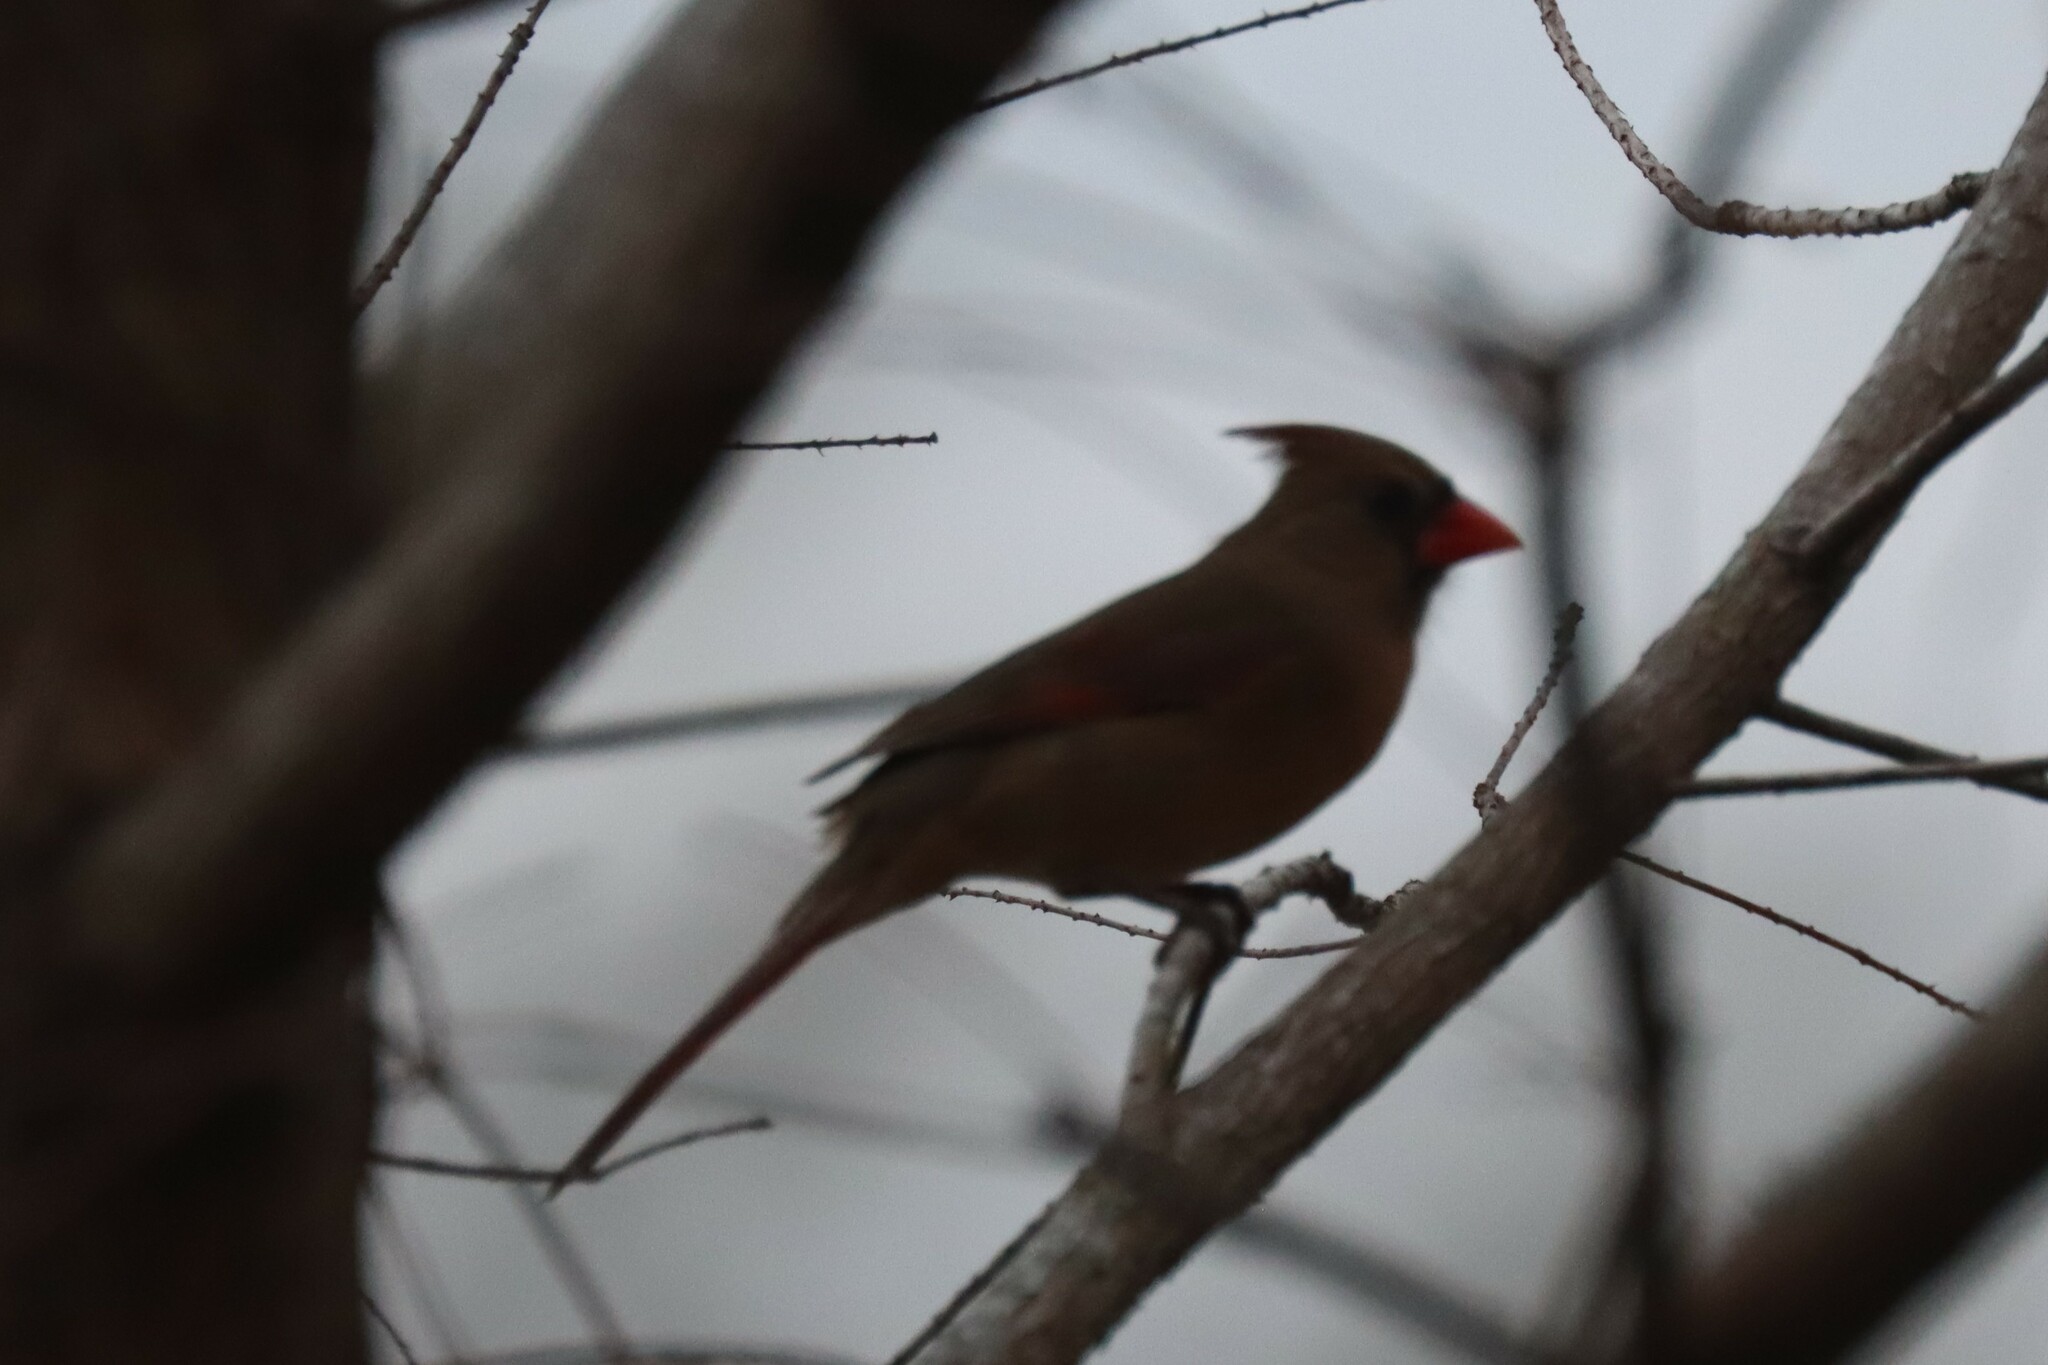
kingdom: Animalia
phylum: Chordata
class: Aves
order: Passeriformes
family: Cardinalidae
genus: Cardinalis
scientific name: Cardinalis cardinalis
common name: Northern cardinal
